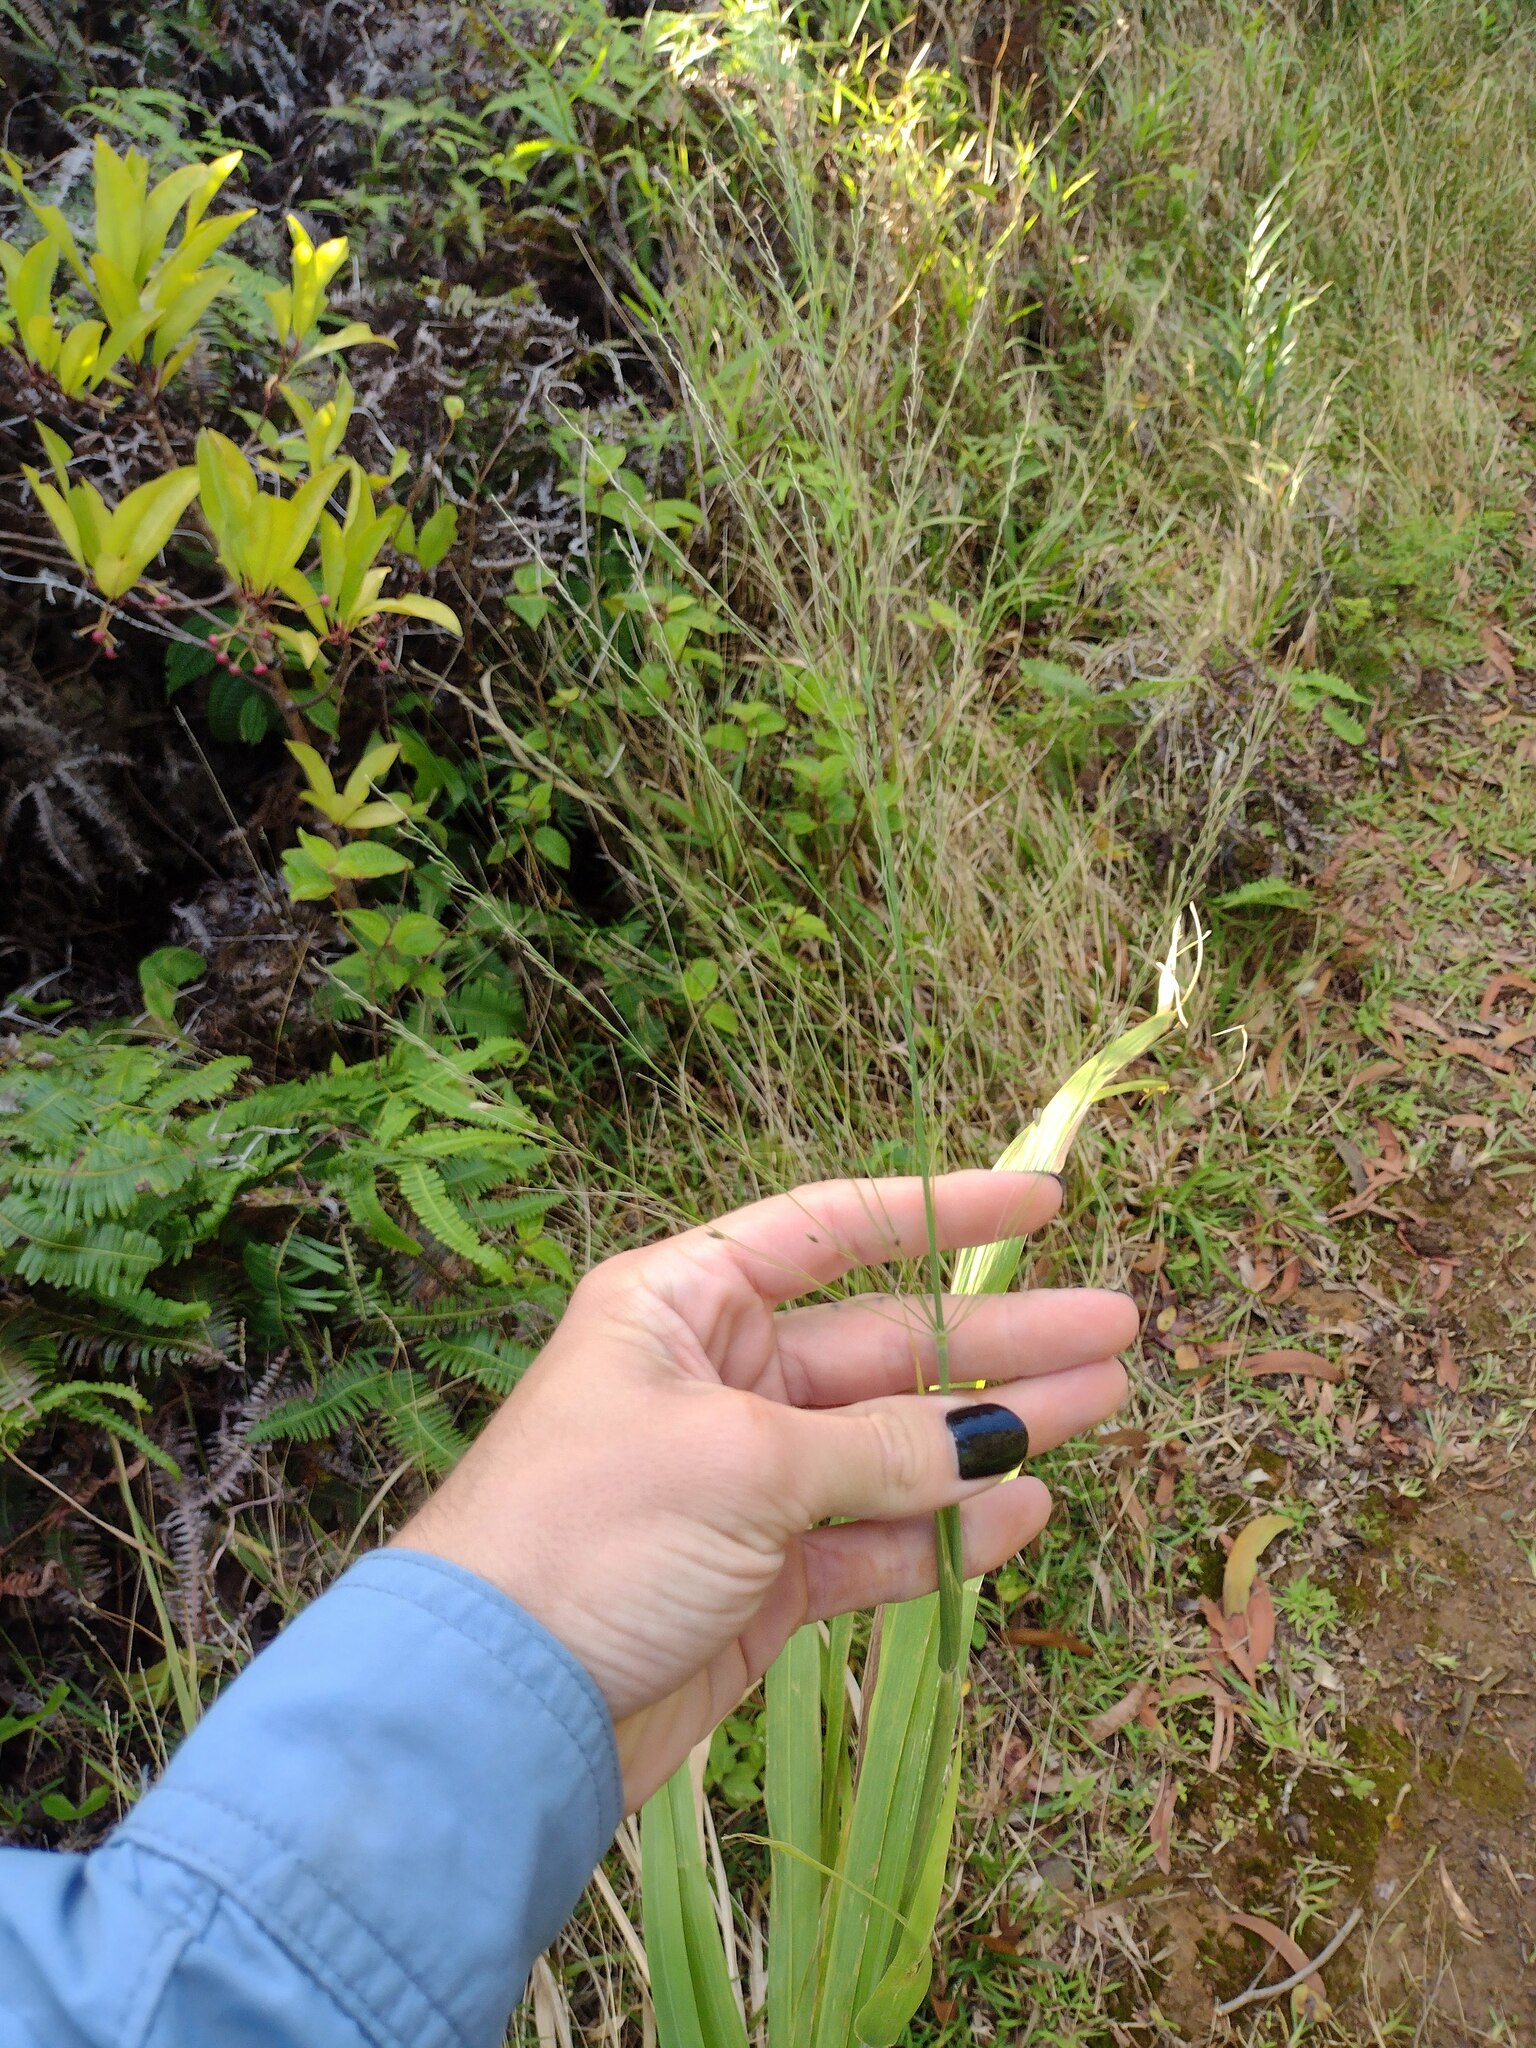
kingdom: Plantae
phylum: Tracheophyta
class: Liliopsida
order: Poales
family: Poaceae
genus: Megathyrsus
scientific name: Megathyrsus maximus
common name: Guineagrass
